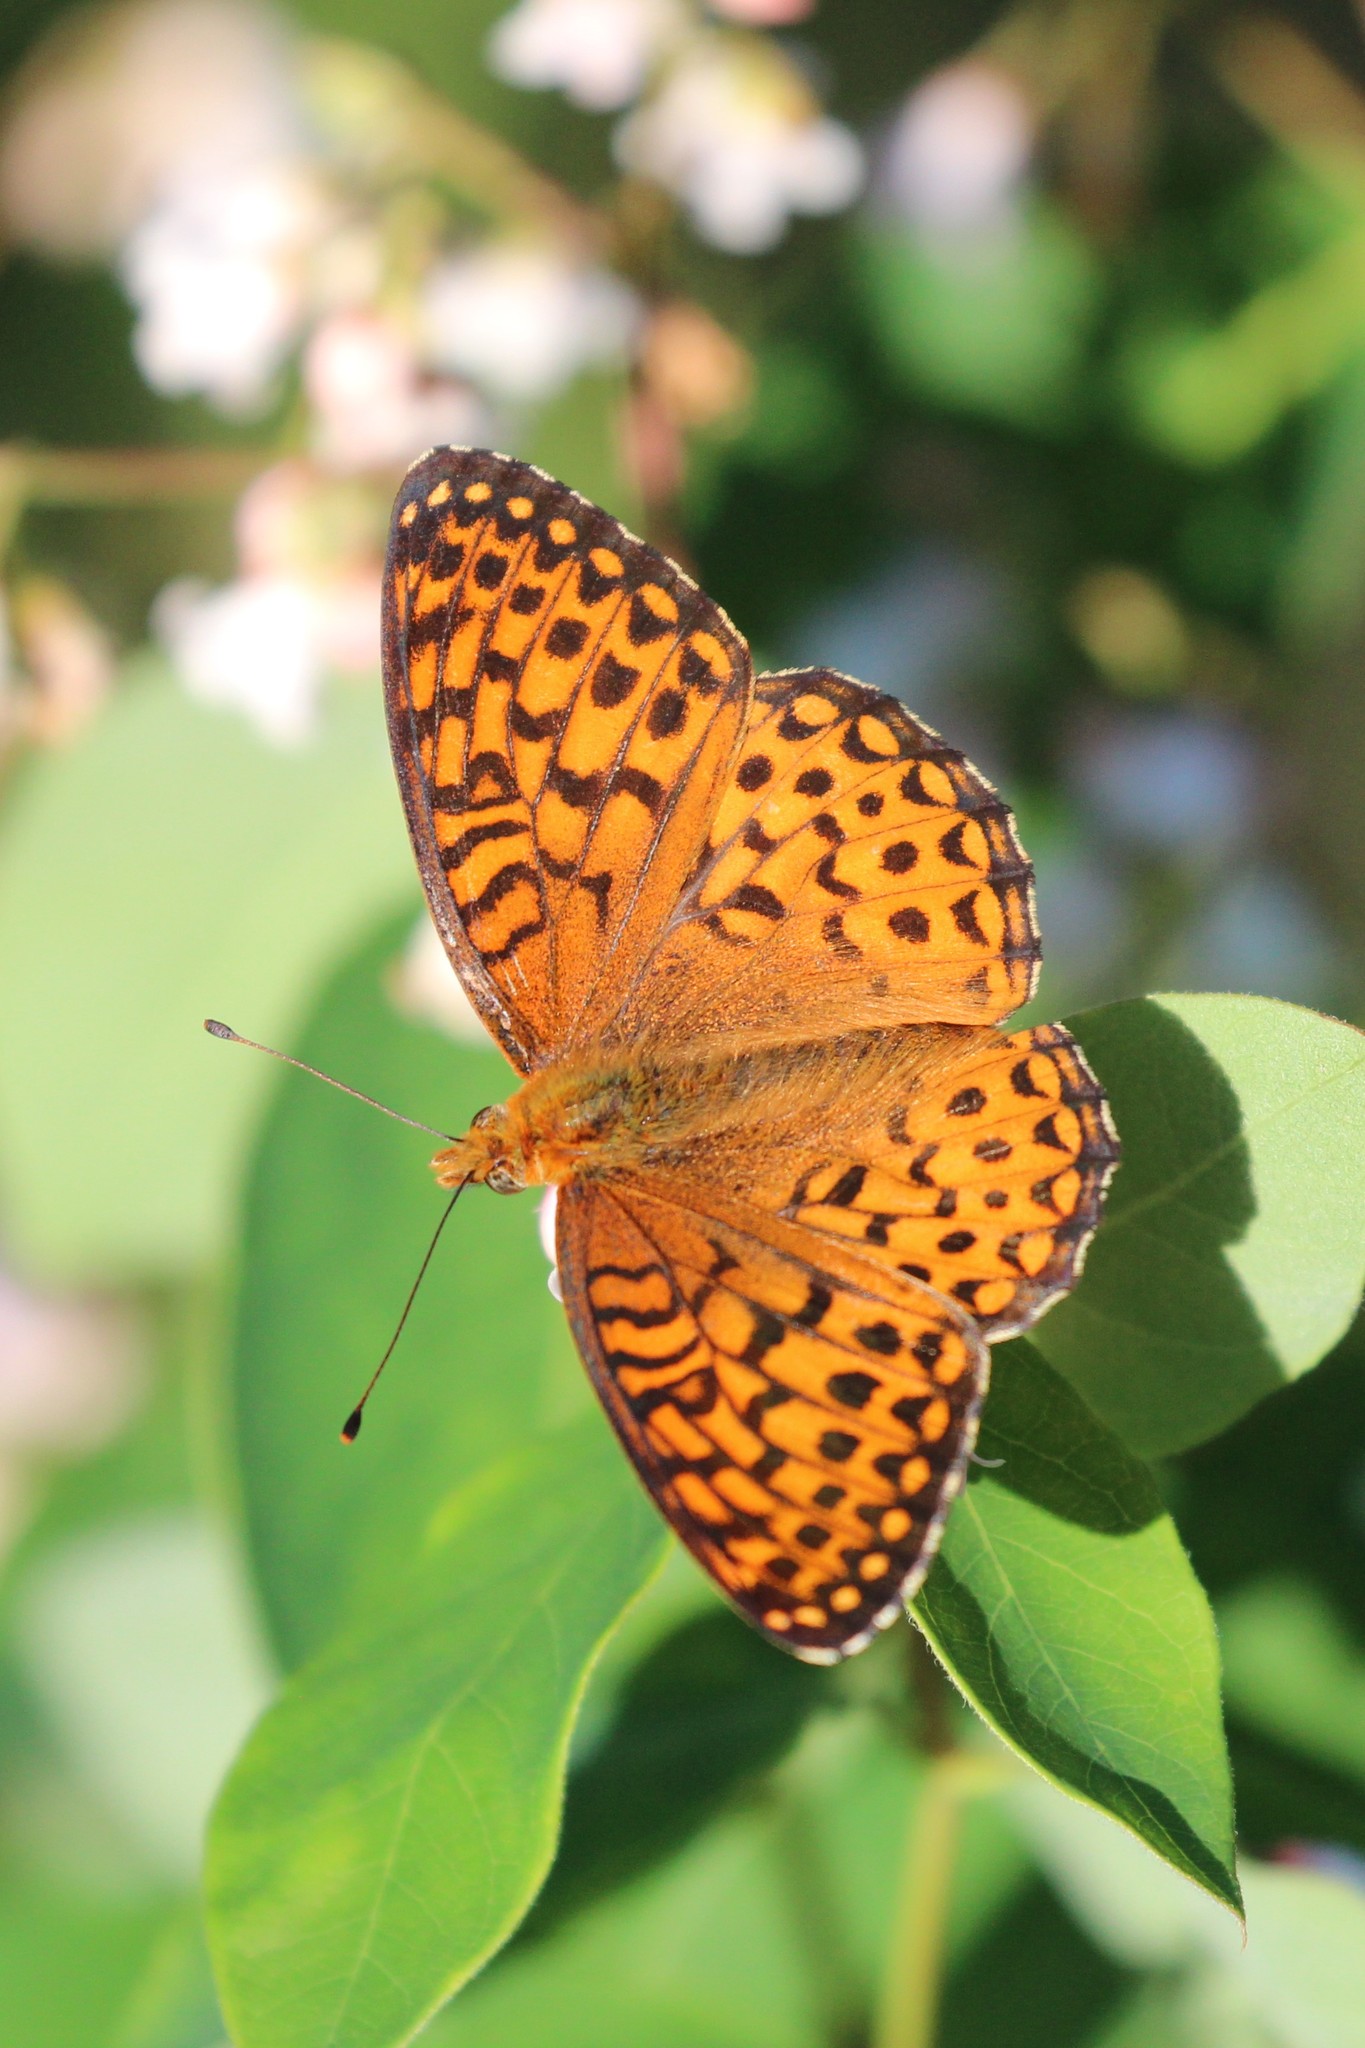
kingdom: Animalia
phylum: Arthropoda
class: Insecta
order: Lepidoptera
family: Nymphalidae
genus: Speyeria
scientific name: Speyeria atlantis
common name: Atlantis fritillary
